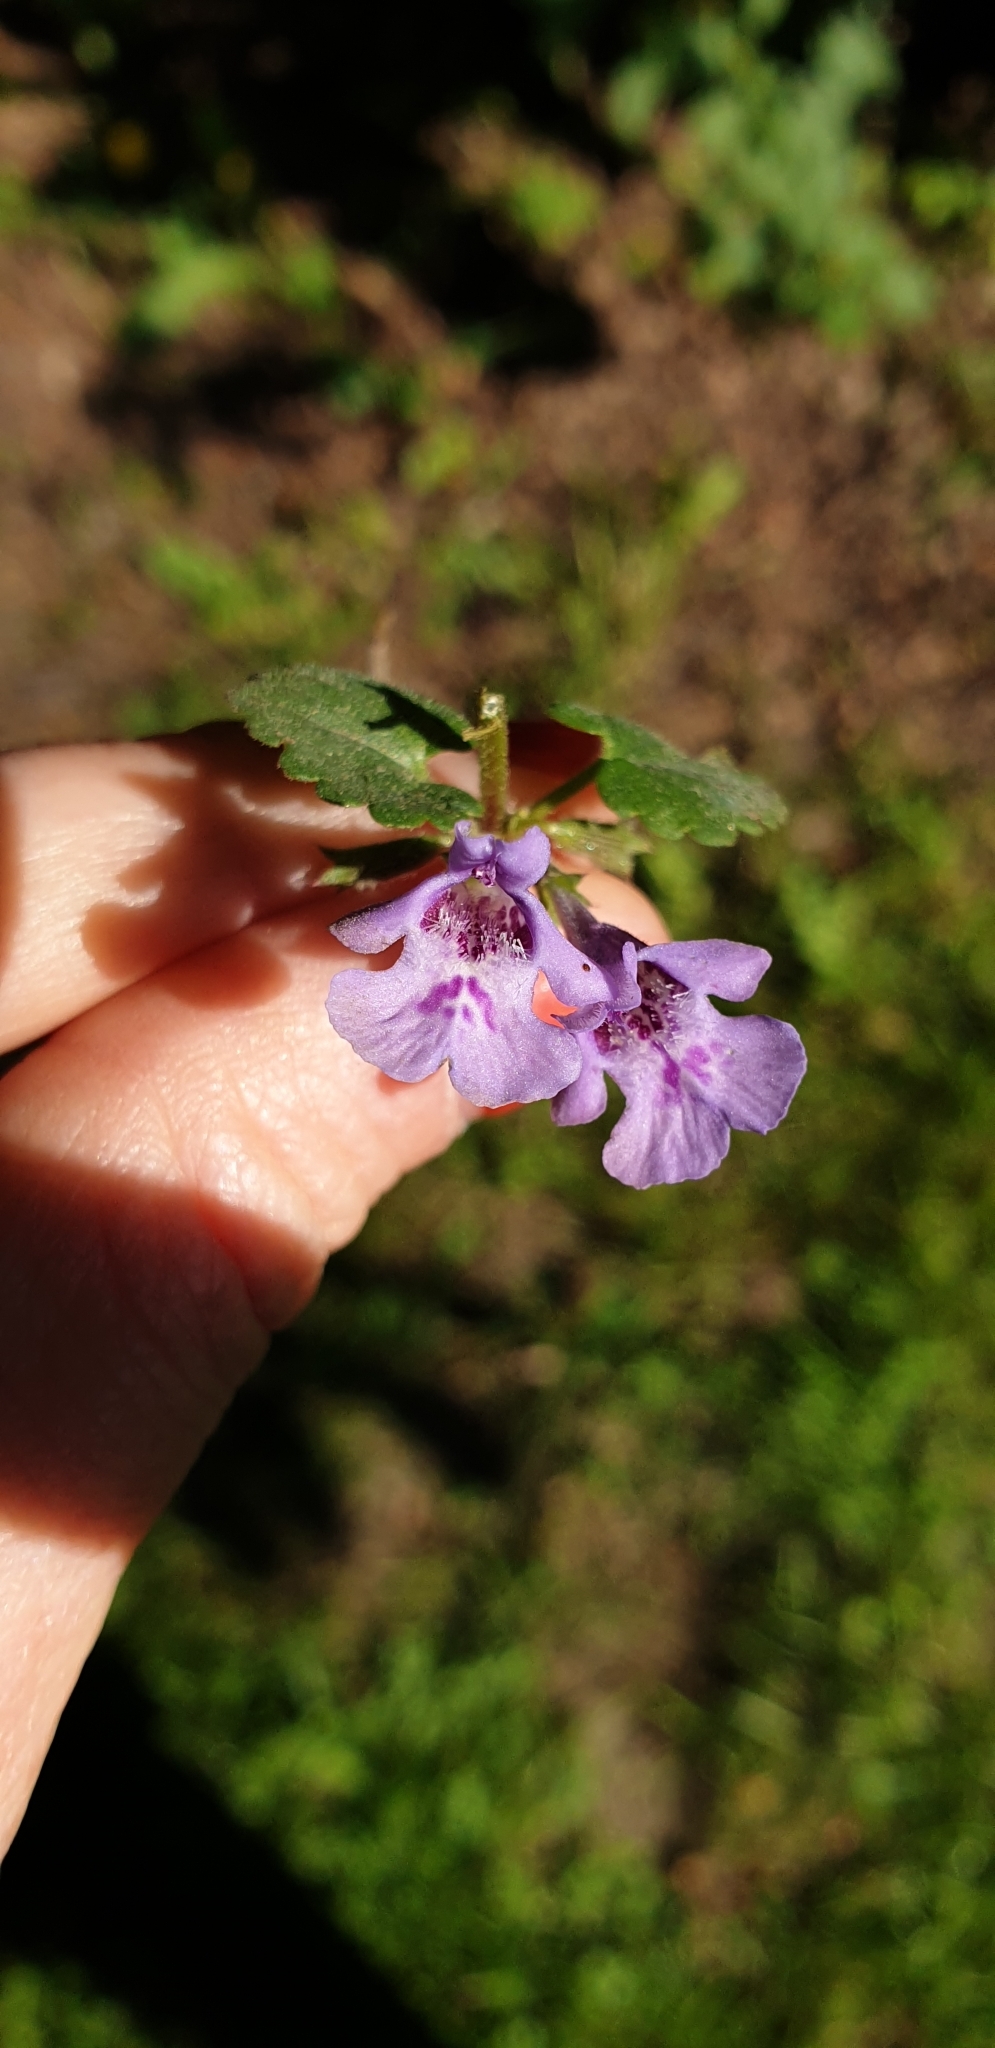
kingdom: Plantae
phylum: Tracheophyta
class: Magnoliopsida
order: Lamiales
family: Lamiaceae
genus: Glechoma
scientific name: Glechoma hederacea
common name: Ground ivy
